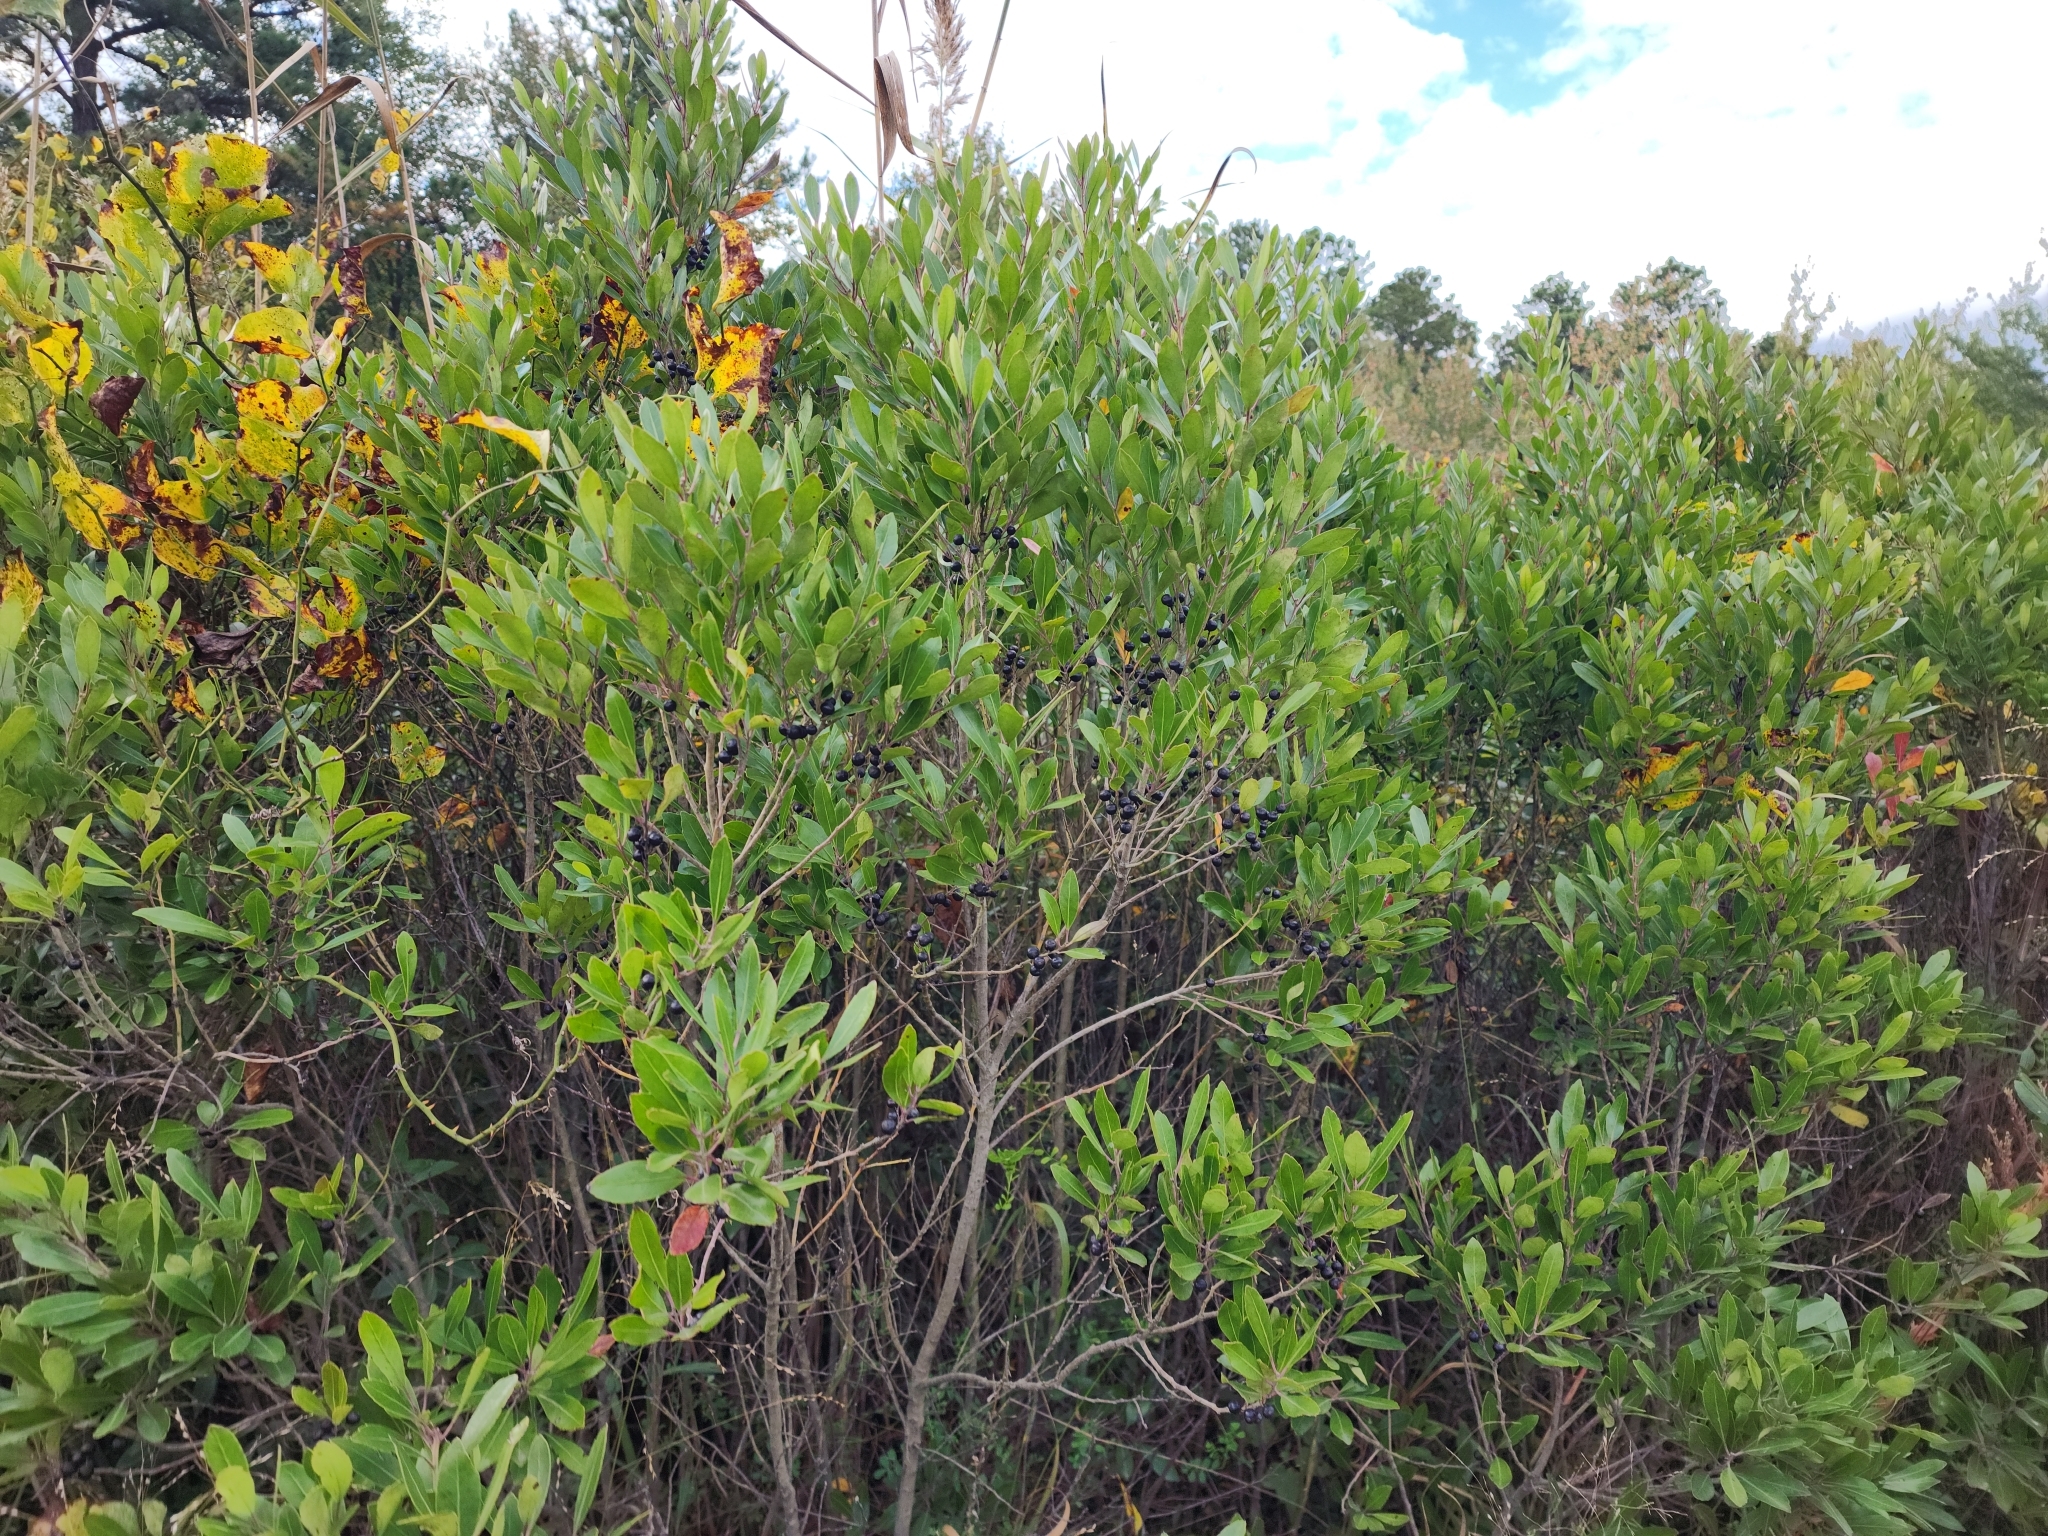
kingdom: Plantae
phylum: Tracheophyta
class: Magnoliopsida
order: Aquifoliales
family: Aquifoliaceae
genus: Ilex
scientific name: Ilex glabra
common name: Bitter gallberry
